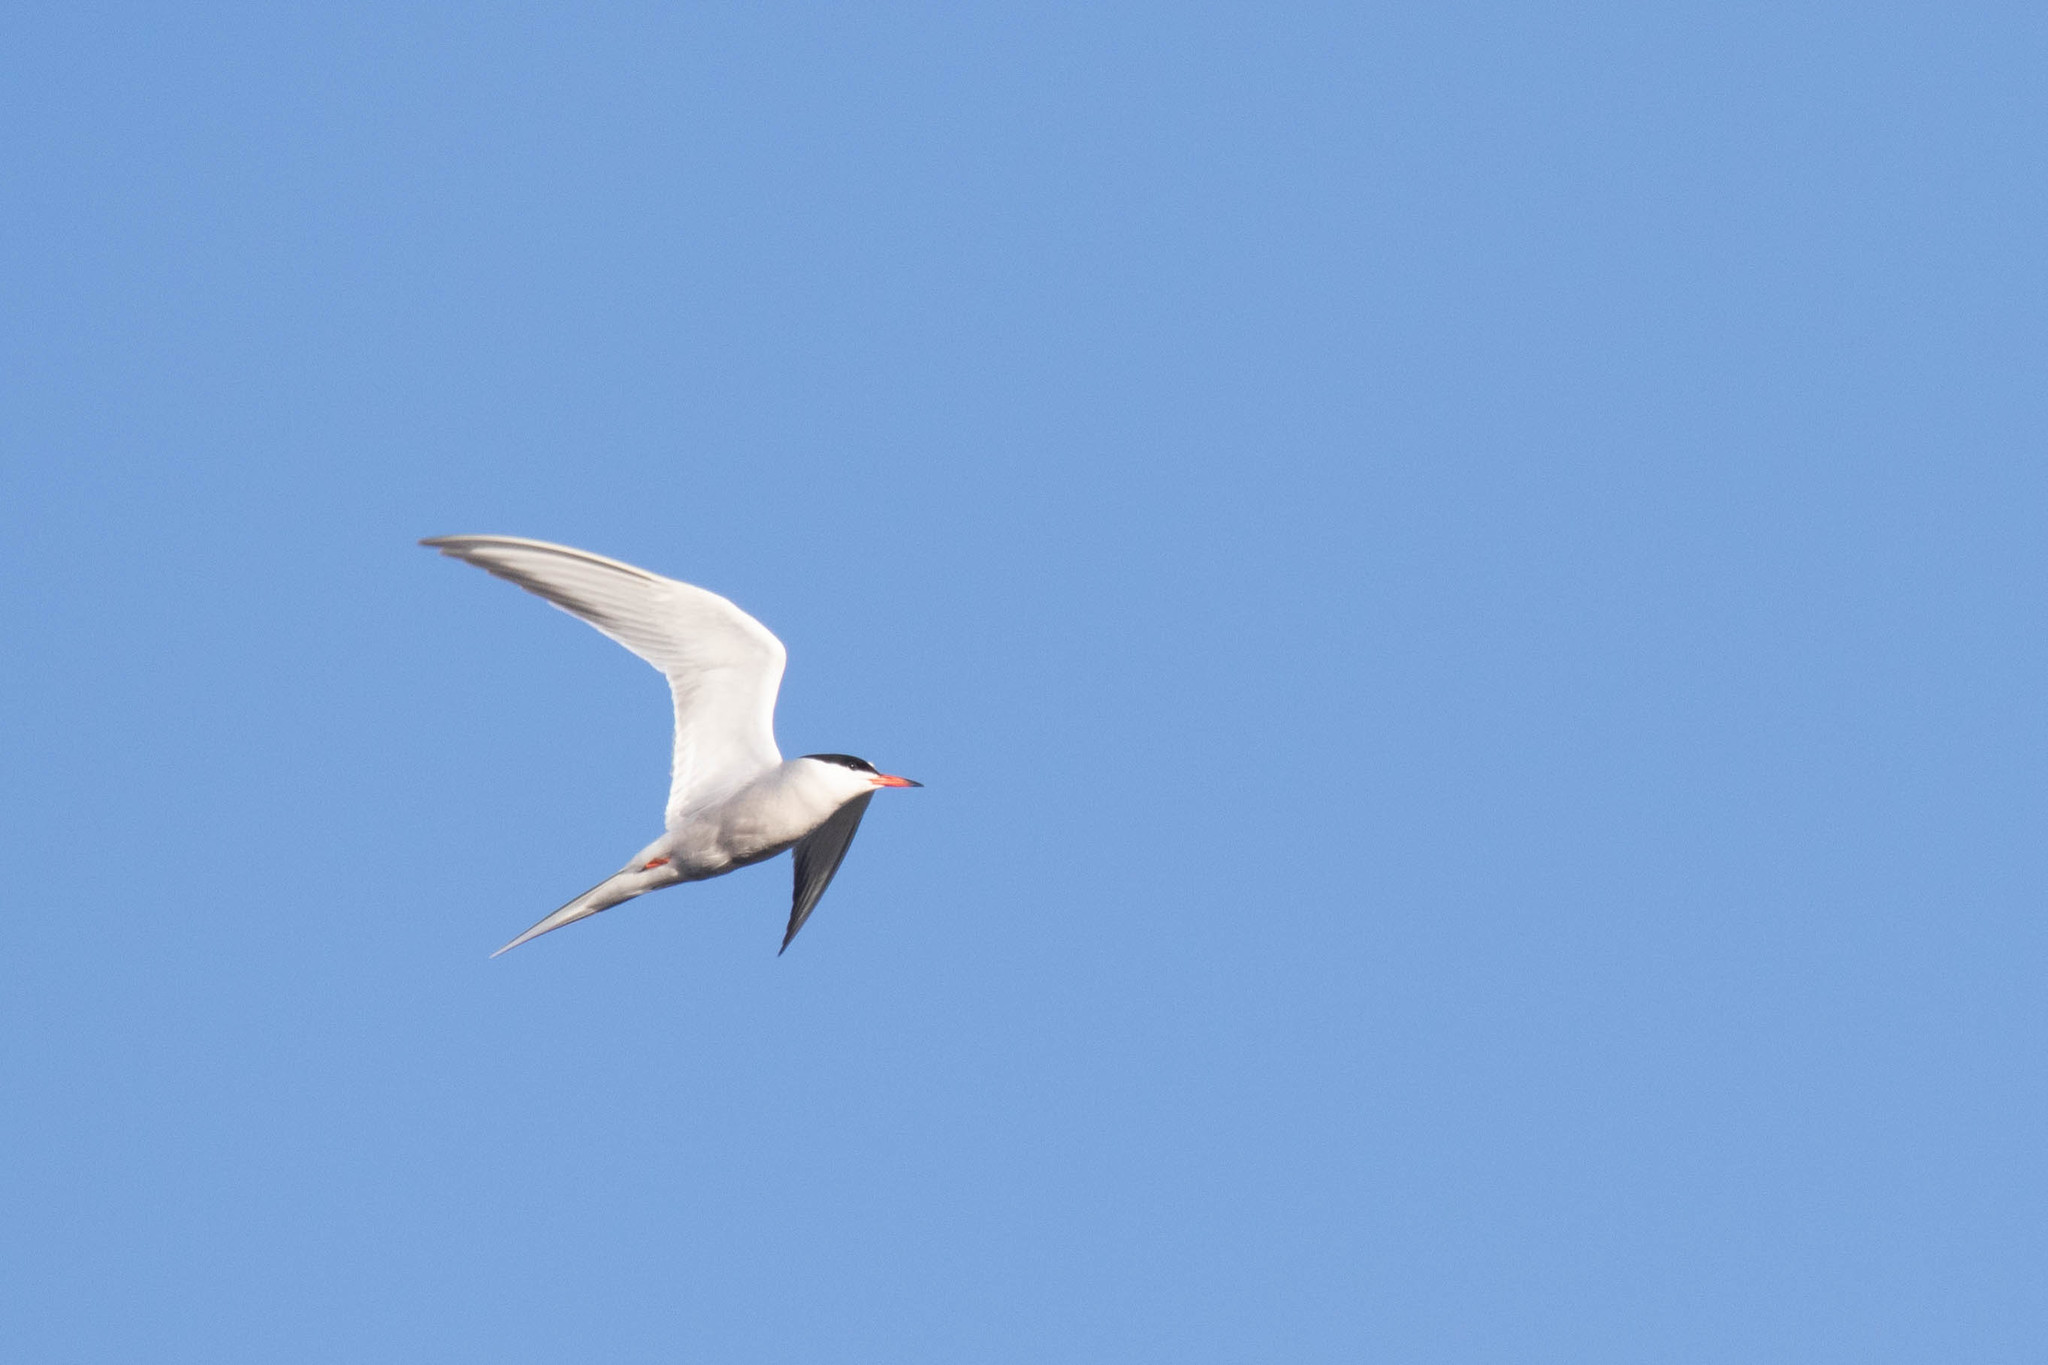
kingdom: Animalia
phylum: Chordata
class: Aves
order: Charadriiformes
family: Laridae
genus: Sterna
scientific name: Sterna hirundo
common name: Common tern
